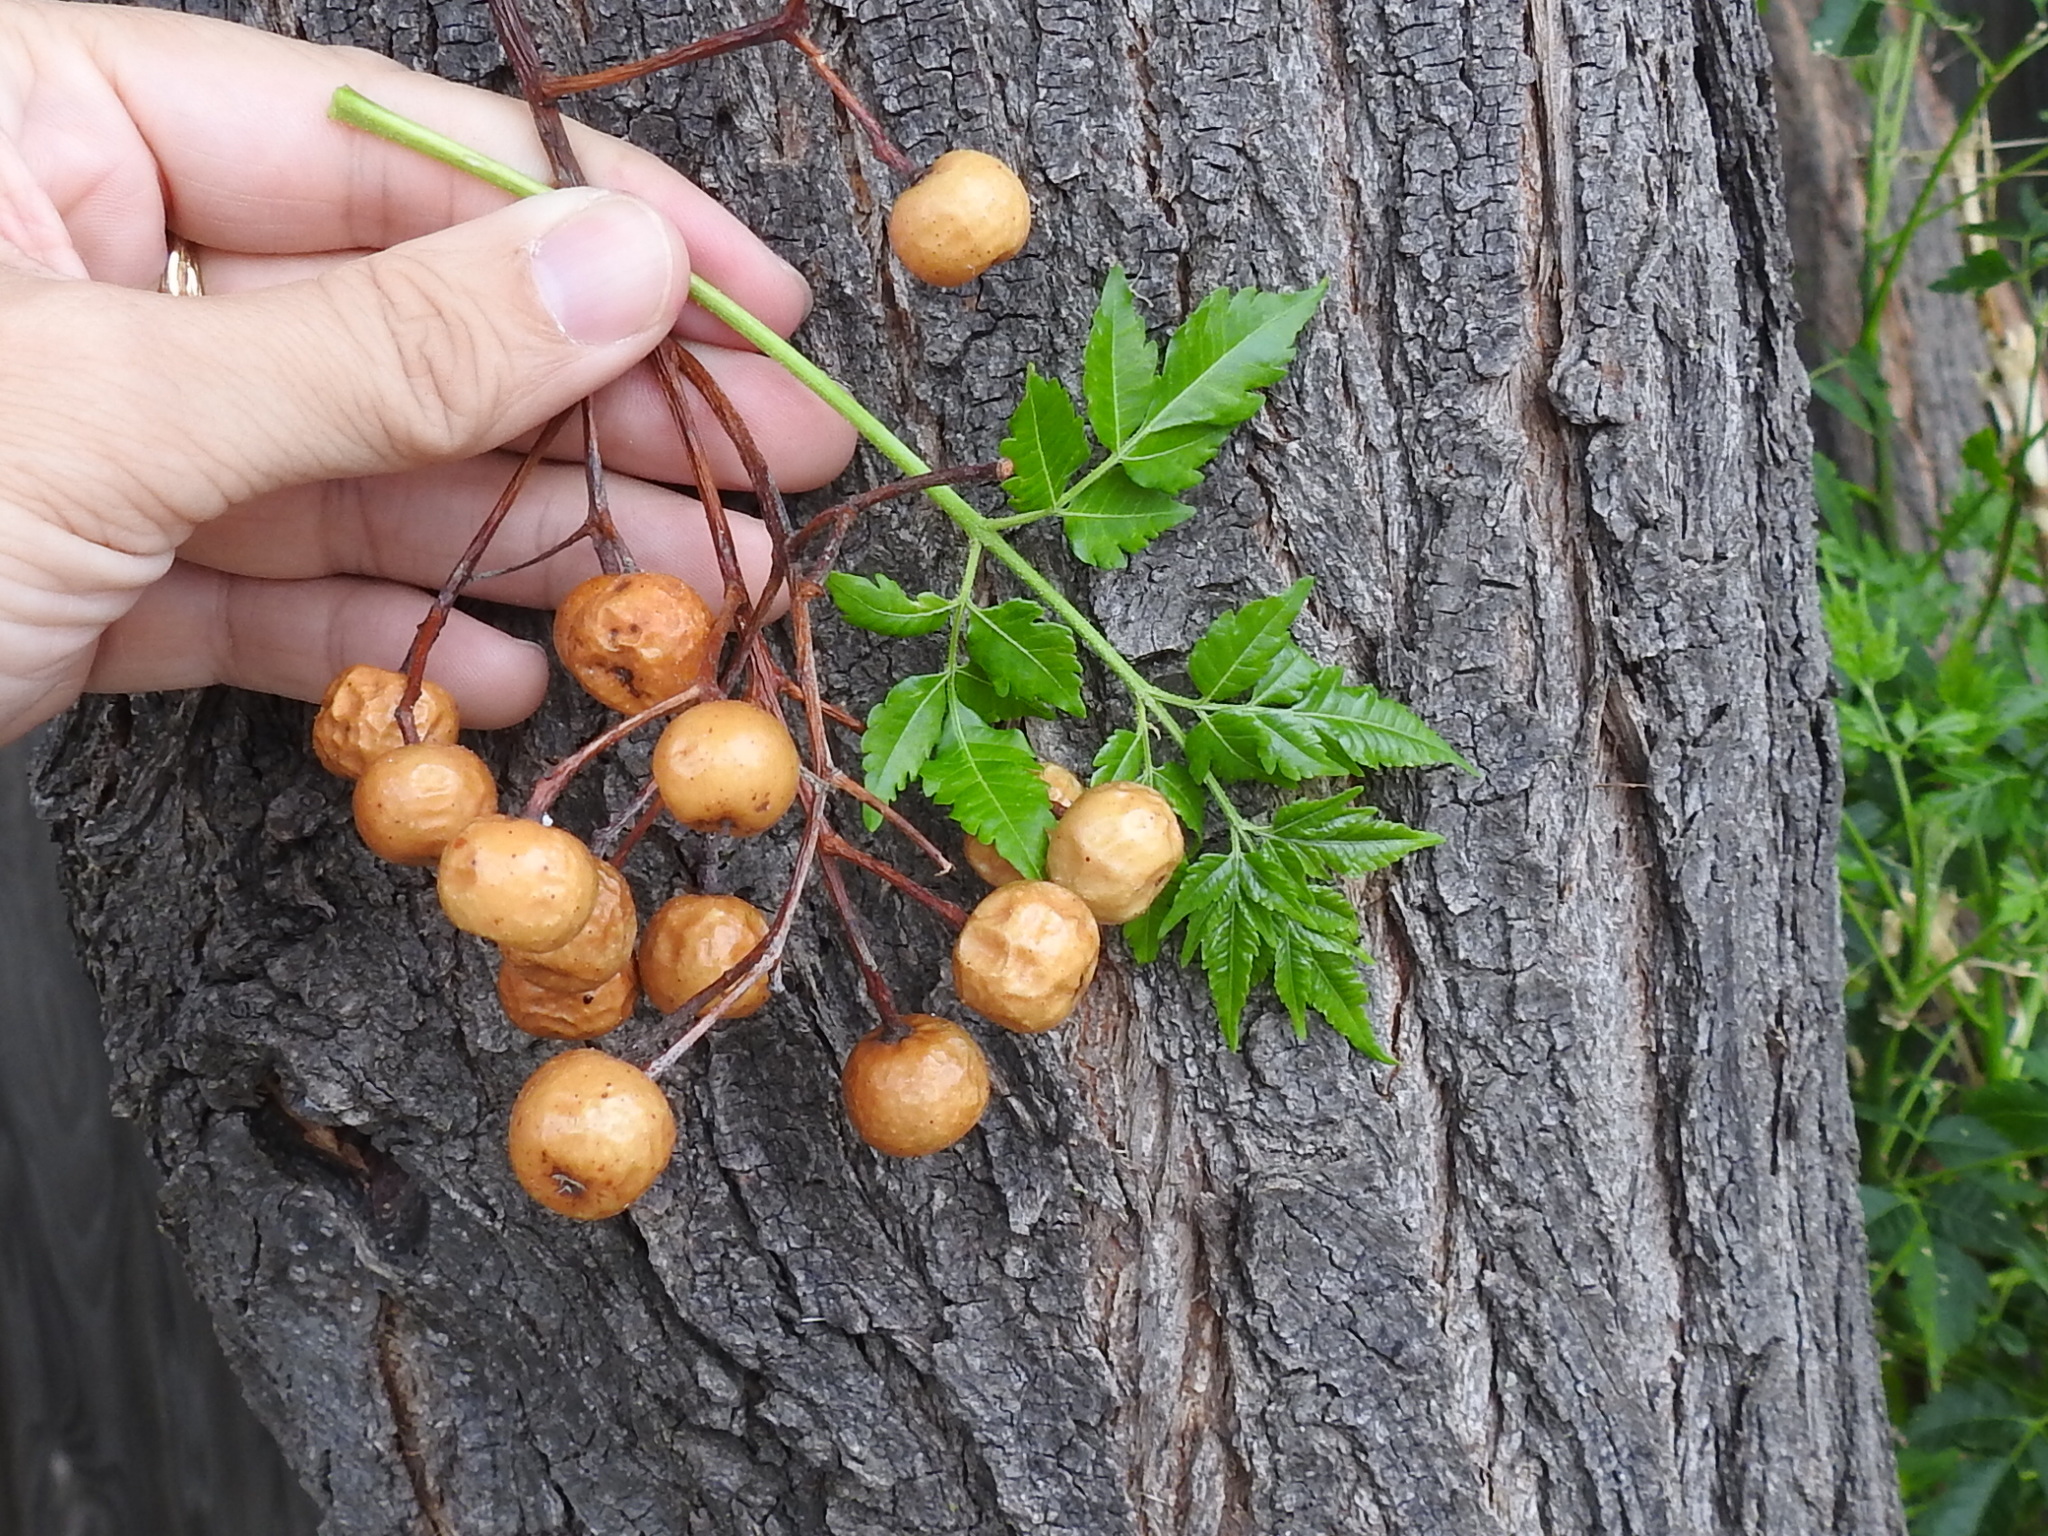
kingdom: Plantae
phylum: Tracheophyta
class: Magnoliopsida
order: Sapindales
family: Meliaceae
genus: Melia
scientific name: Melia azedarach
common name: Chinaberrytree
